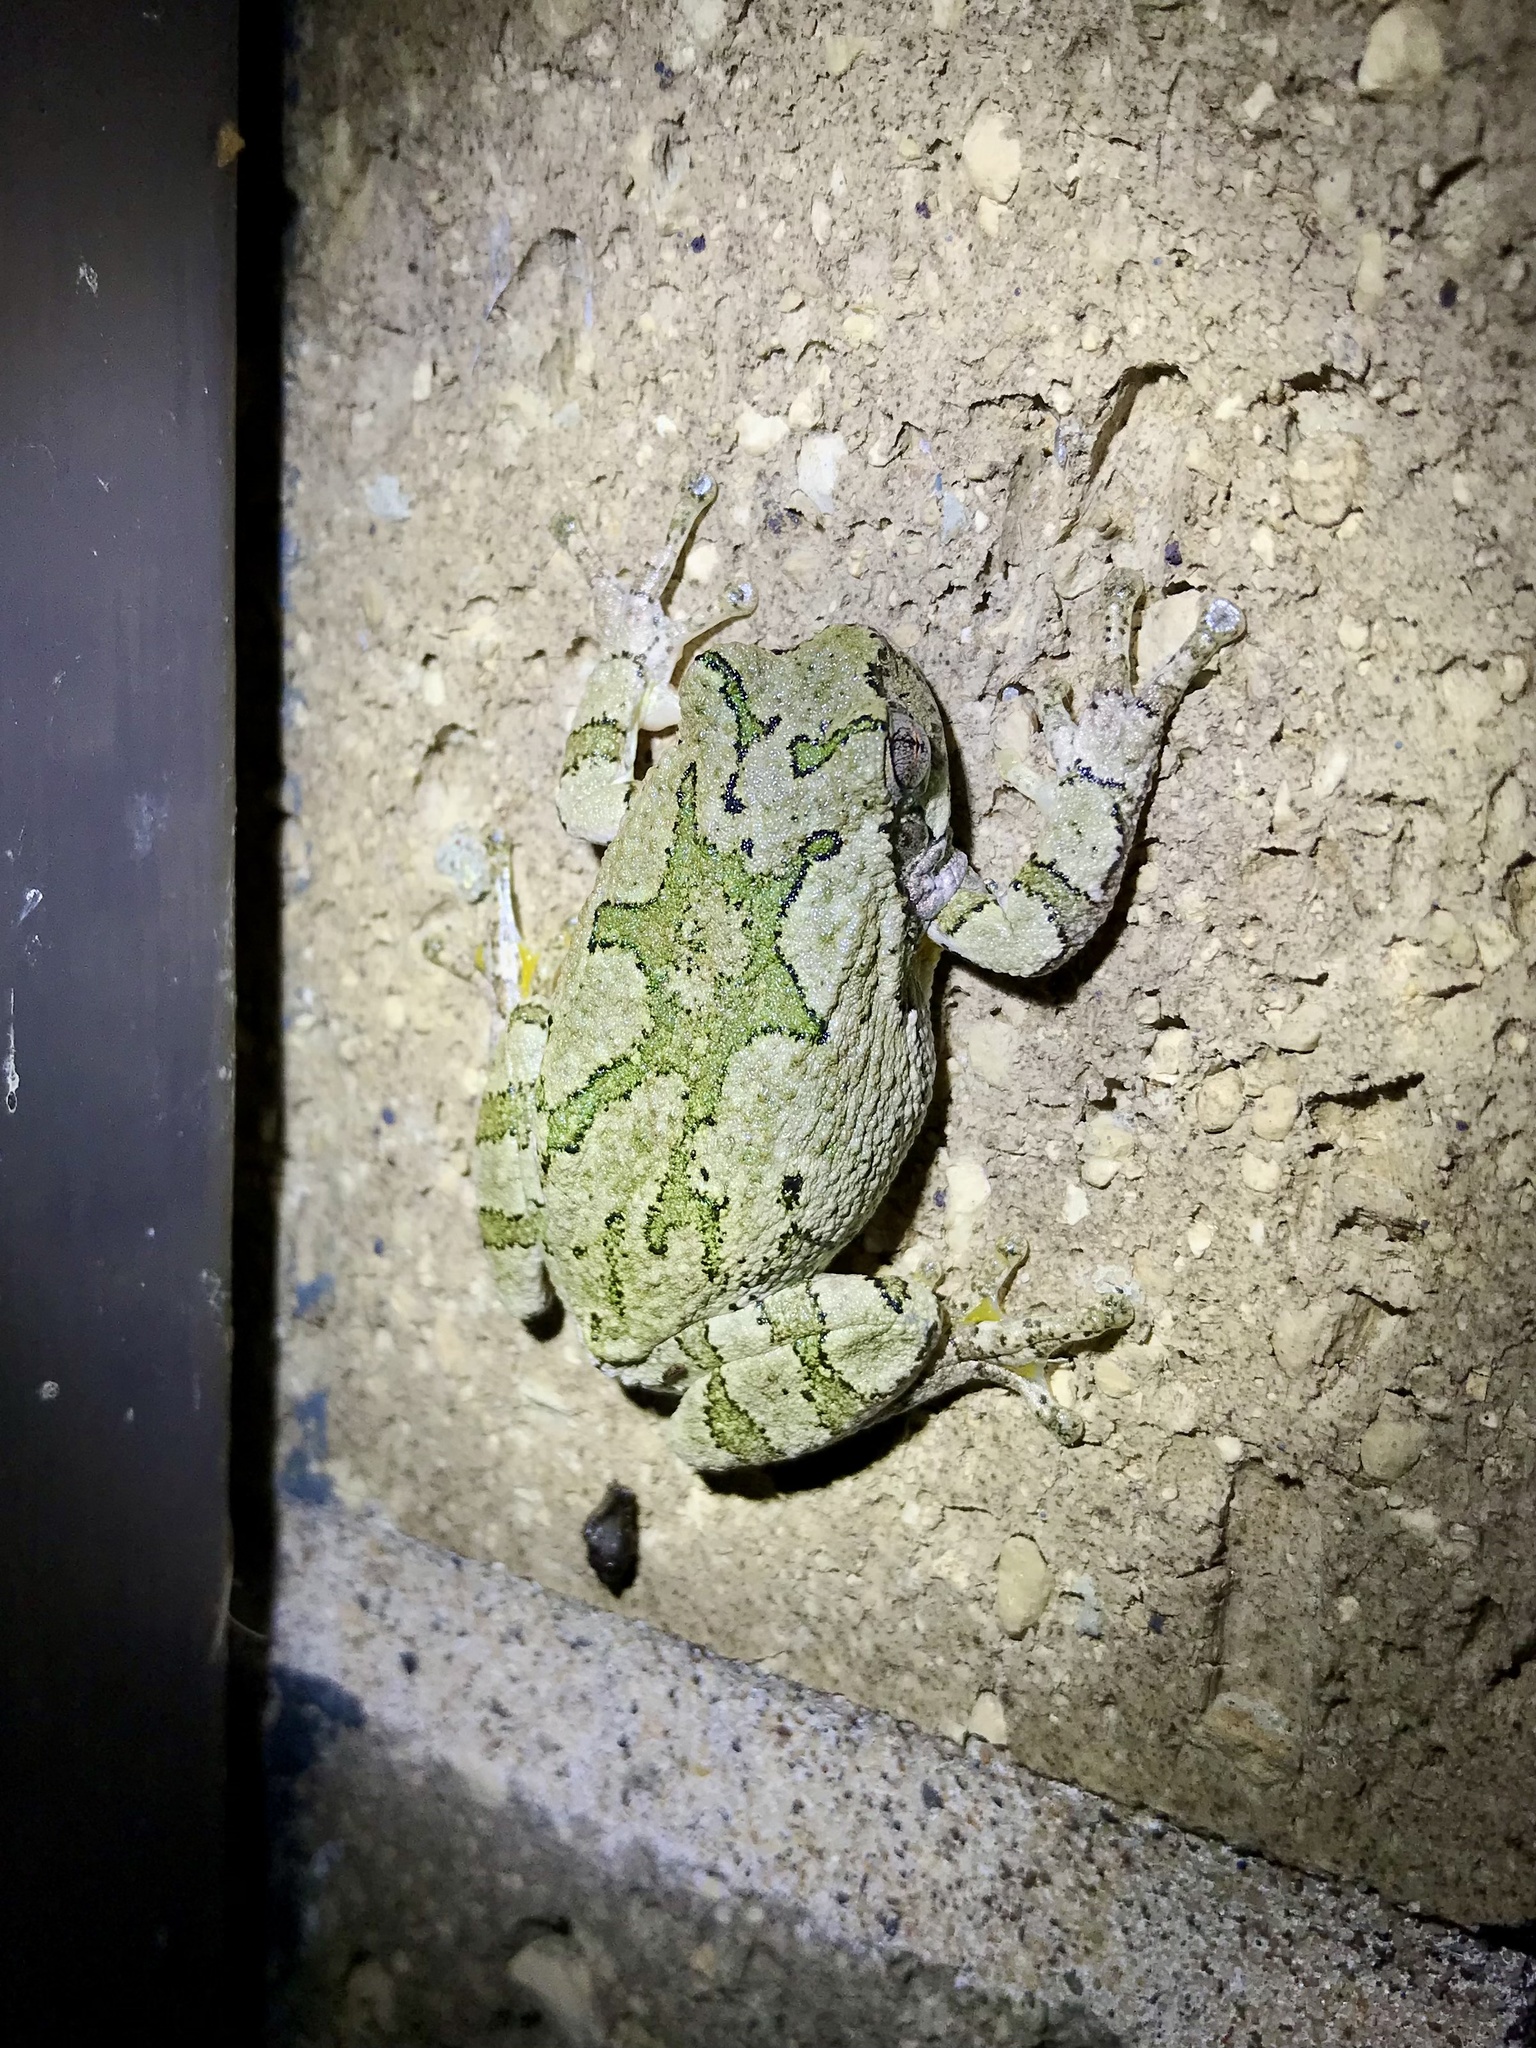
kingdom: Animalia
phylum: Chordata
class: Amphibia
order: Anura
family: Hylidae
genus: Hyla
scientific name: Hyla
